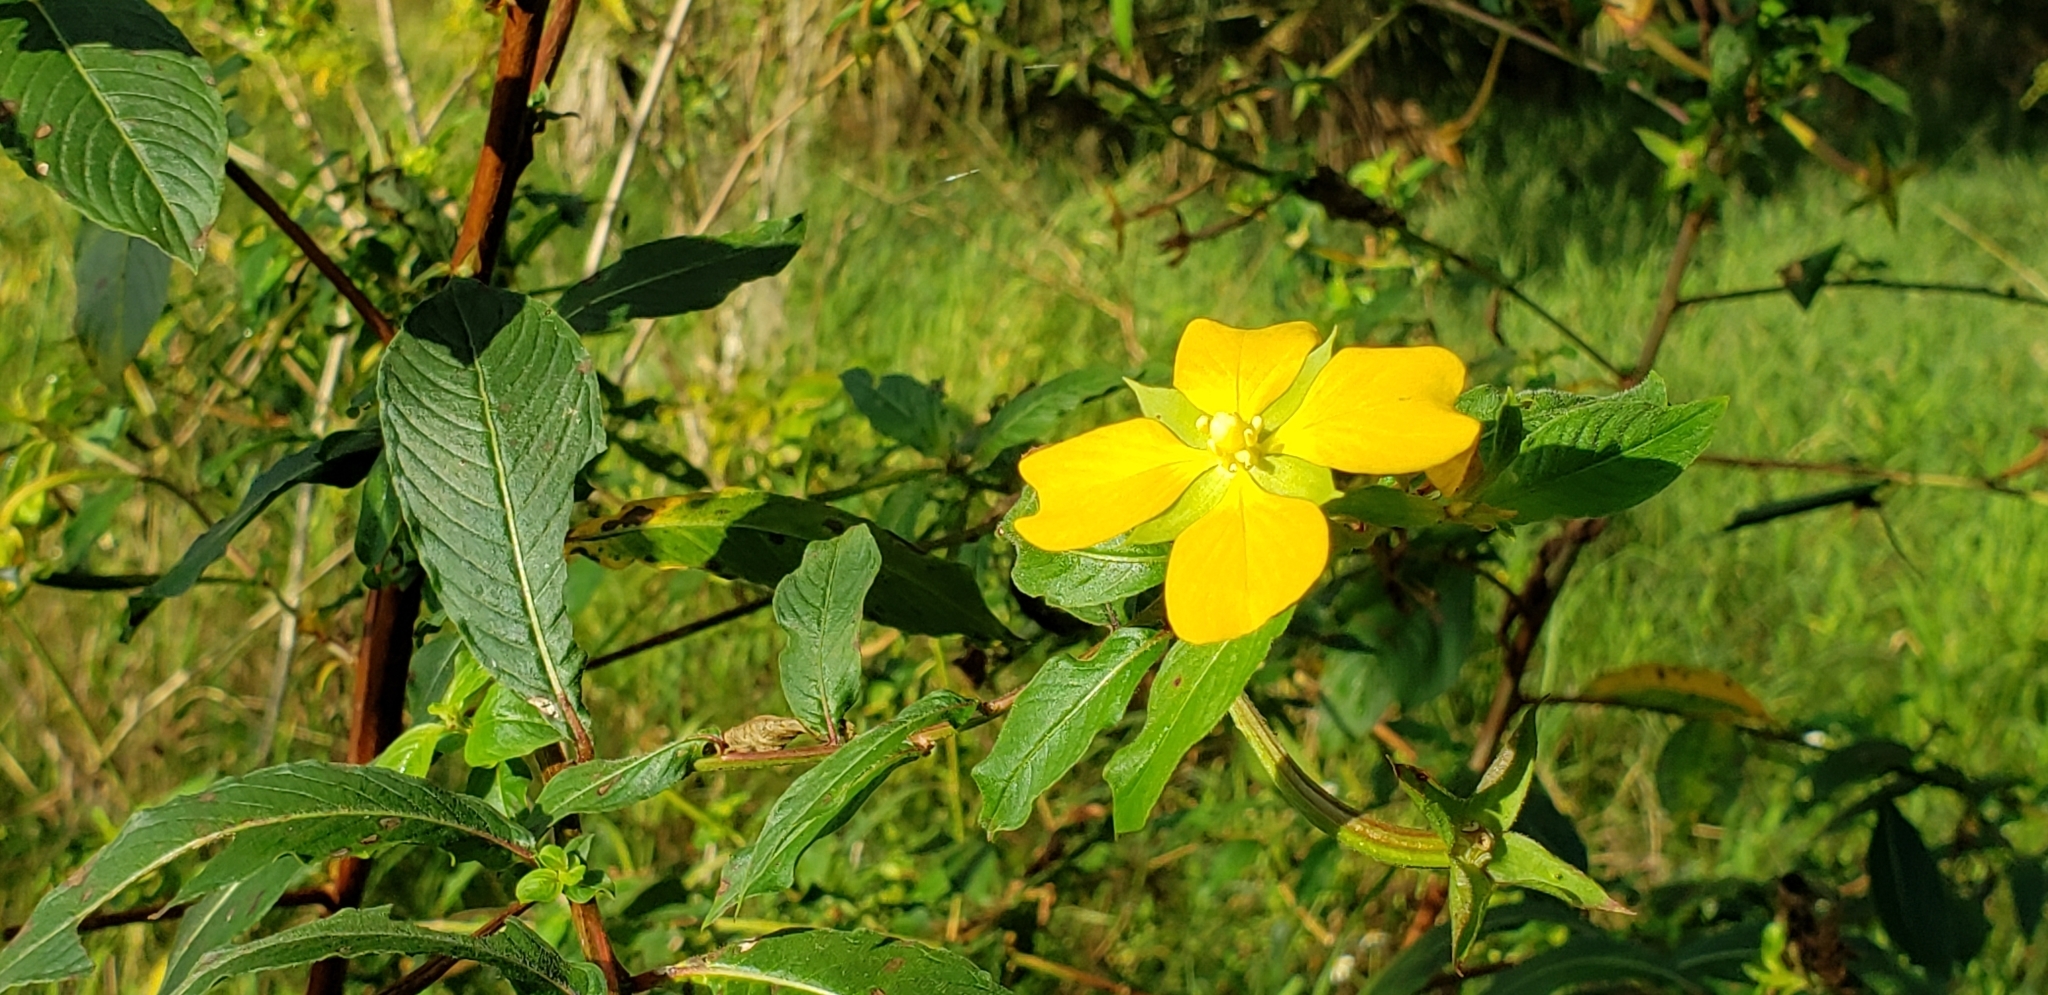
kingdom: Plantae
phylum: Tracheophyta
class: Magnoliopsida
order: Myrtales
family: Onagraceae
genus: Ludwigia
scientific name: Ludwigia octovalvis
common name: Water-primrose
